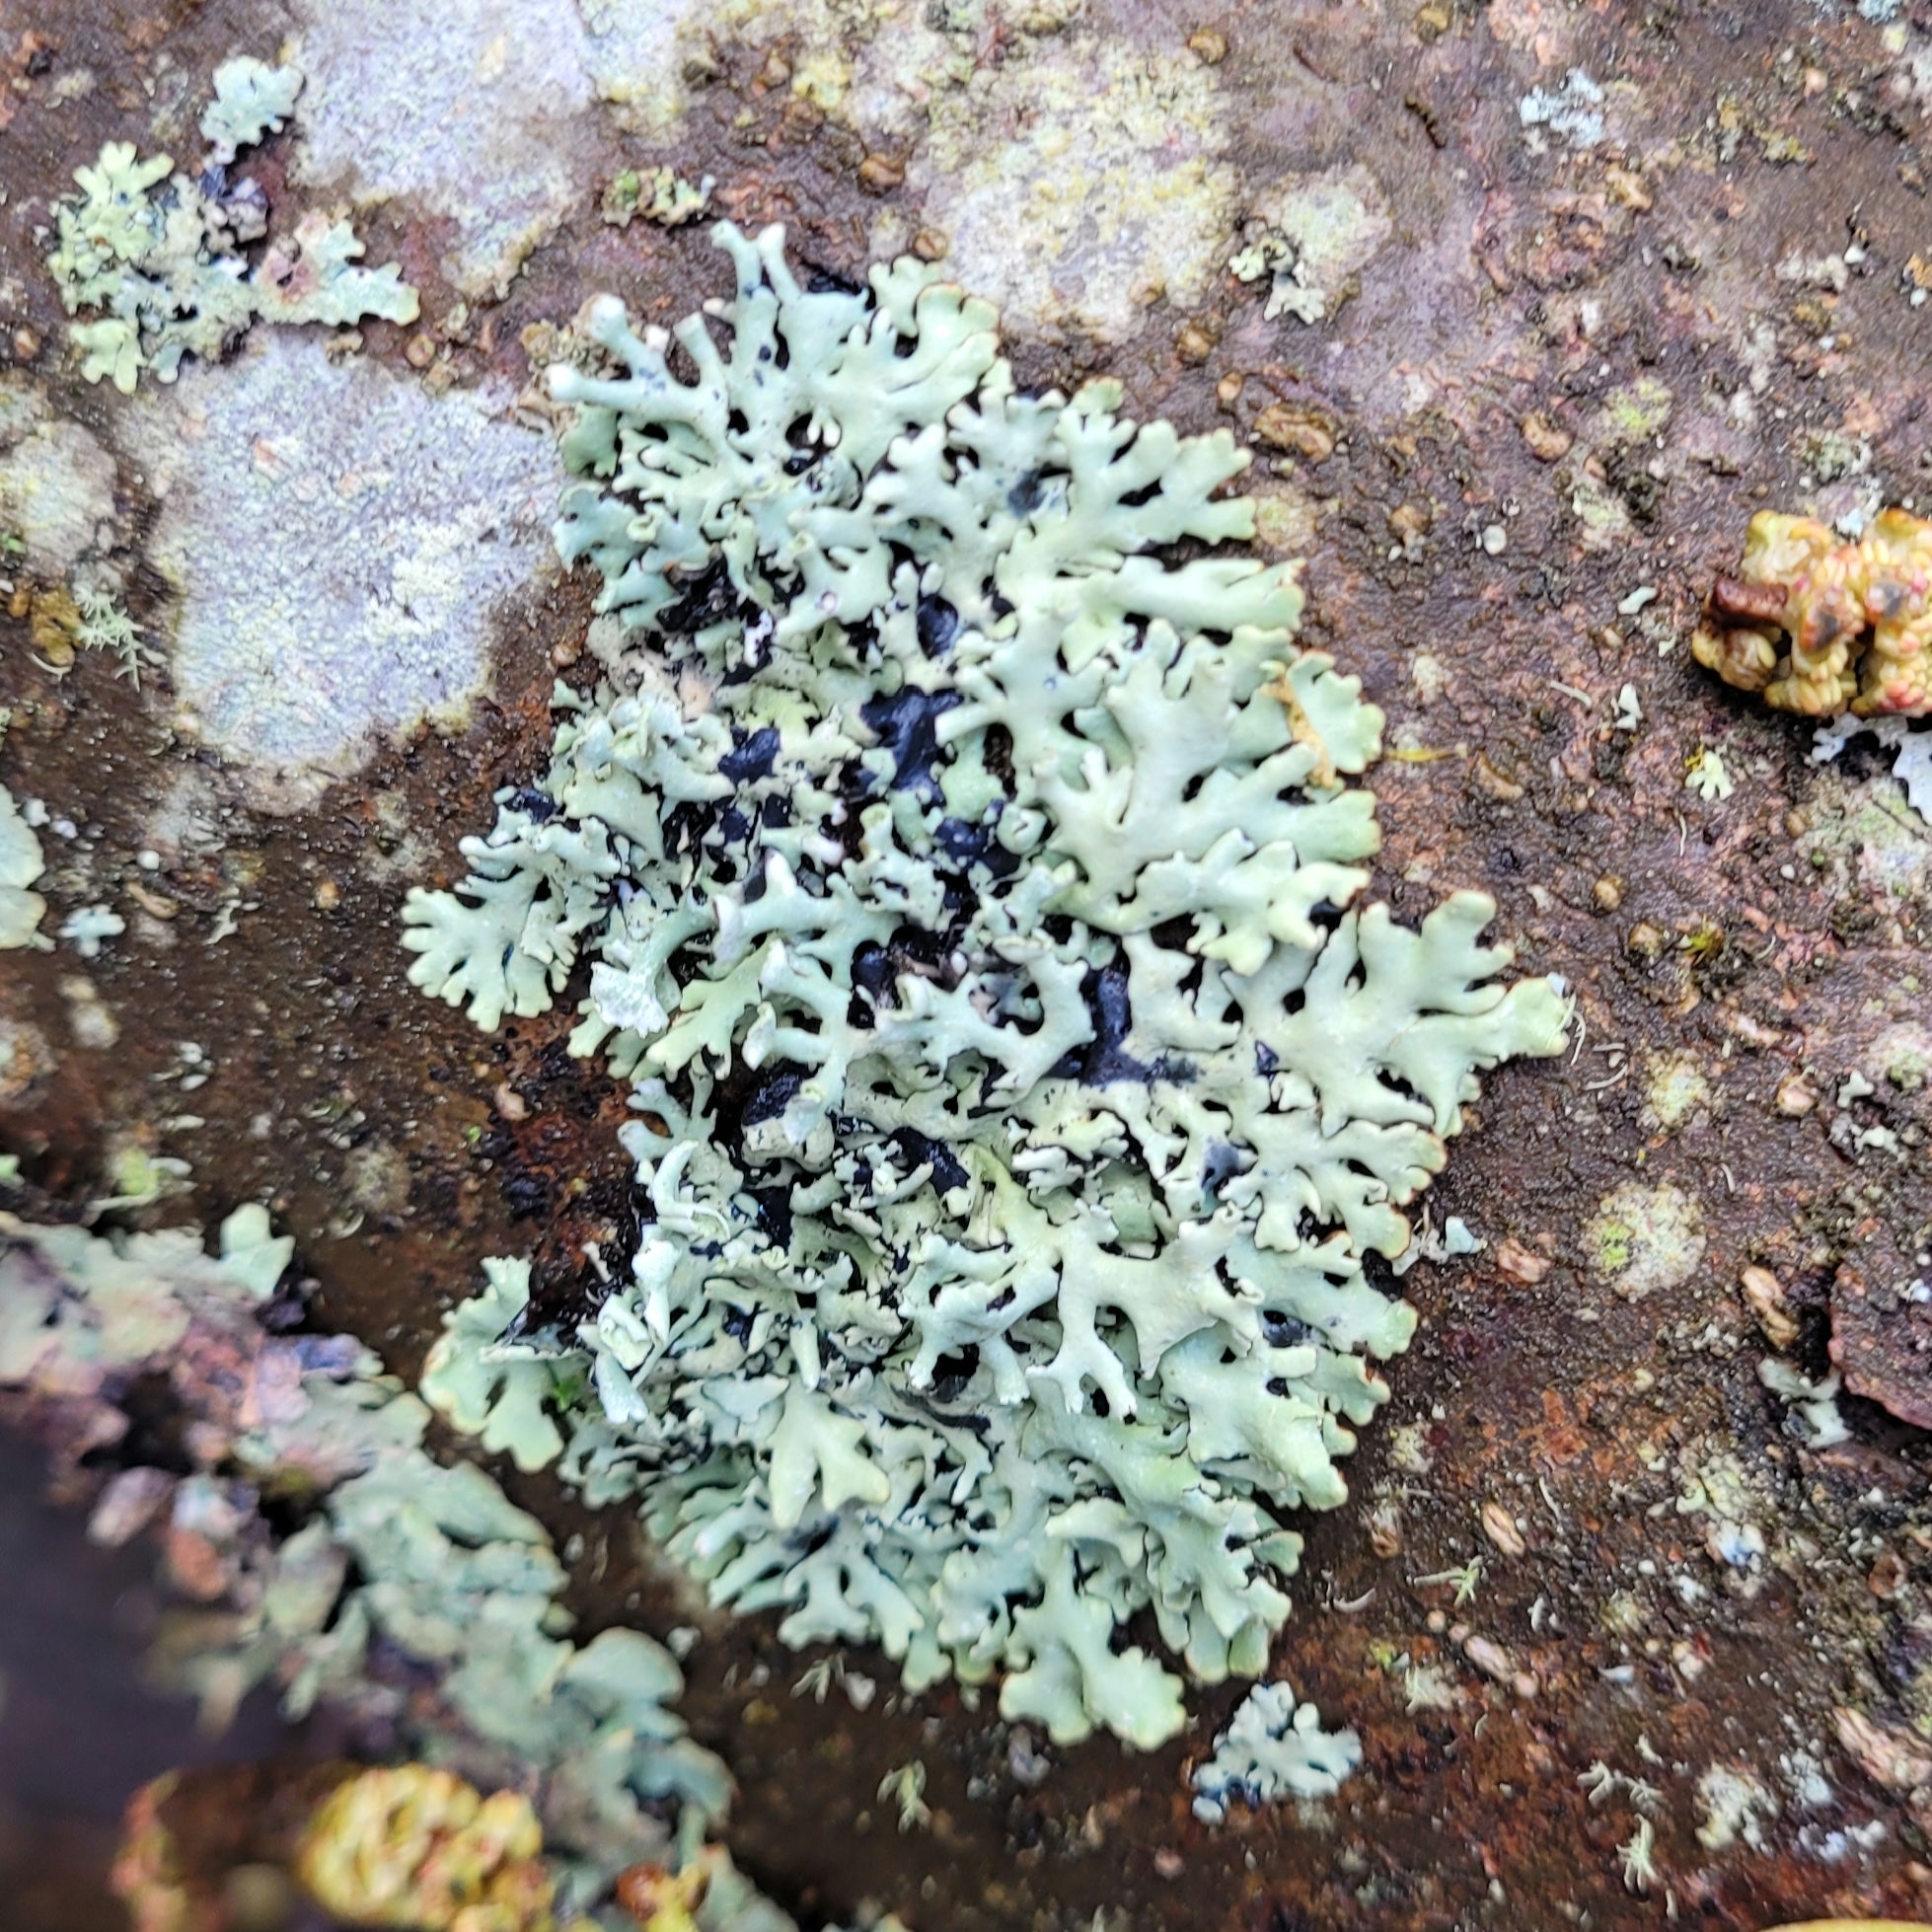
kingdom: Fungi
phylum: Ascomycota
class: Lecanoromycetes
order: Lecanorales
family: Parmeliaceae
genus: Hypogymnia
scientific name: Hypogymnia physodes
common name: Dark crottle
